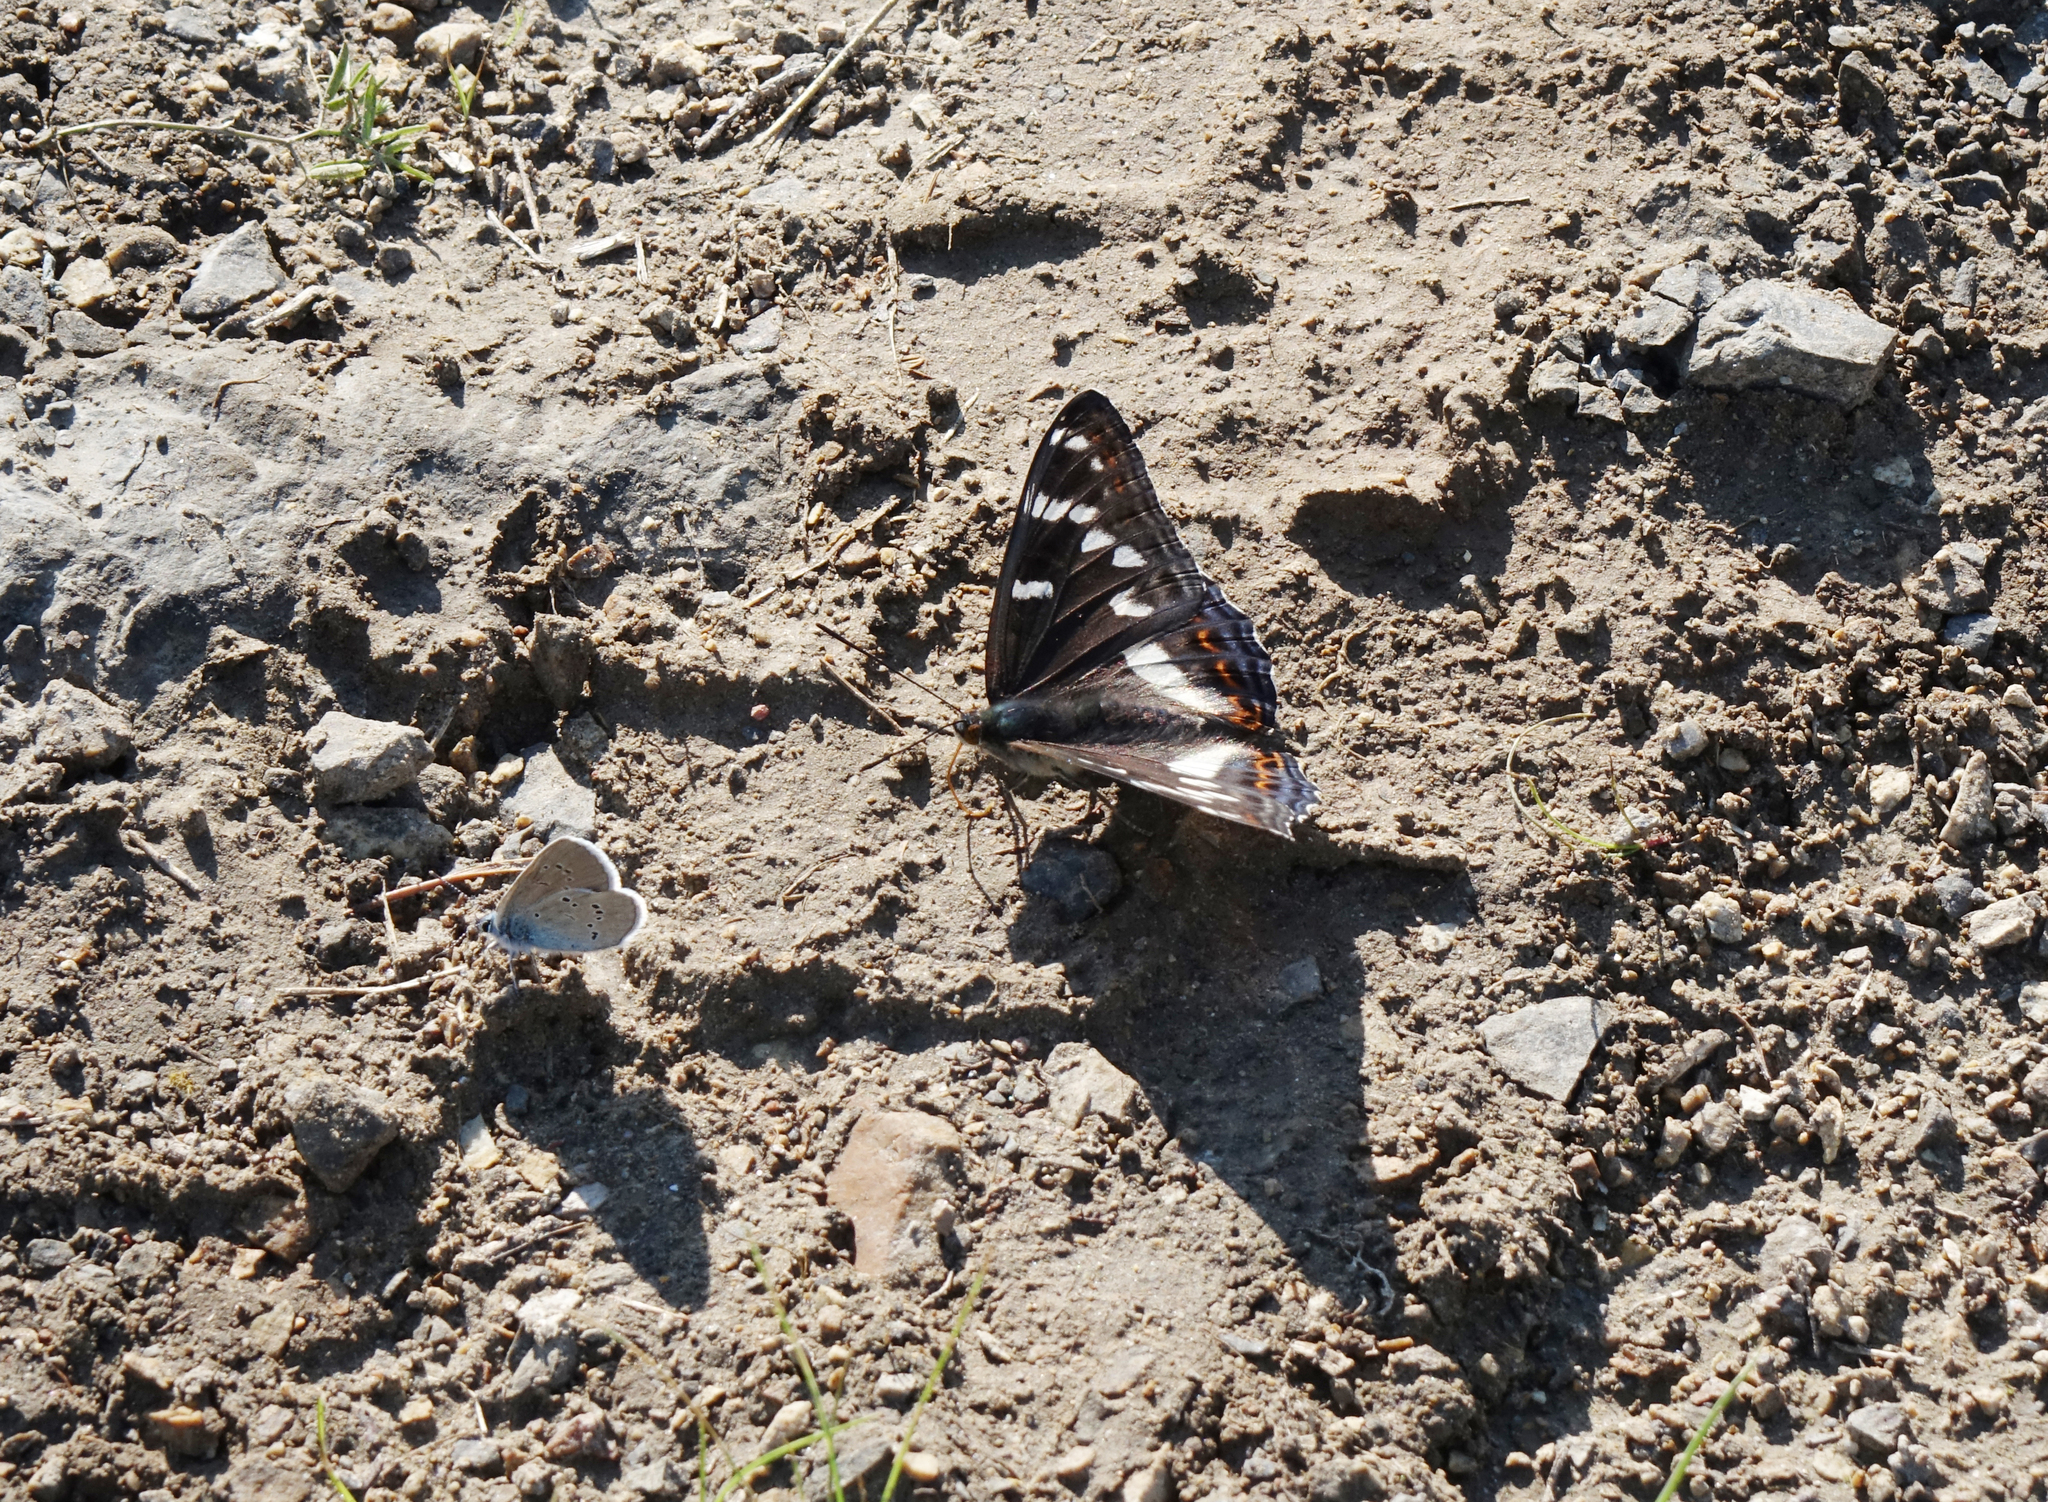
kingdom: Animalia
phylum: Arthropoda
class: Insecta
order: Lepidoptera
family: Lycaenidae
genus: Cyaniris
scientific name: Cyaniris semiargus
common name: Mazarine blue
